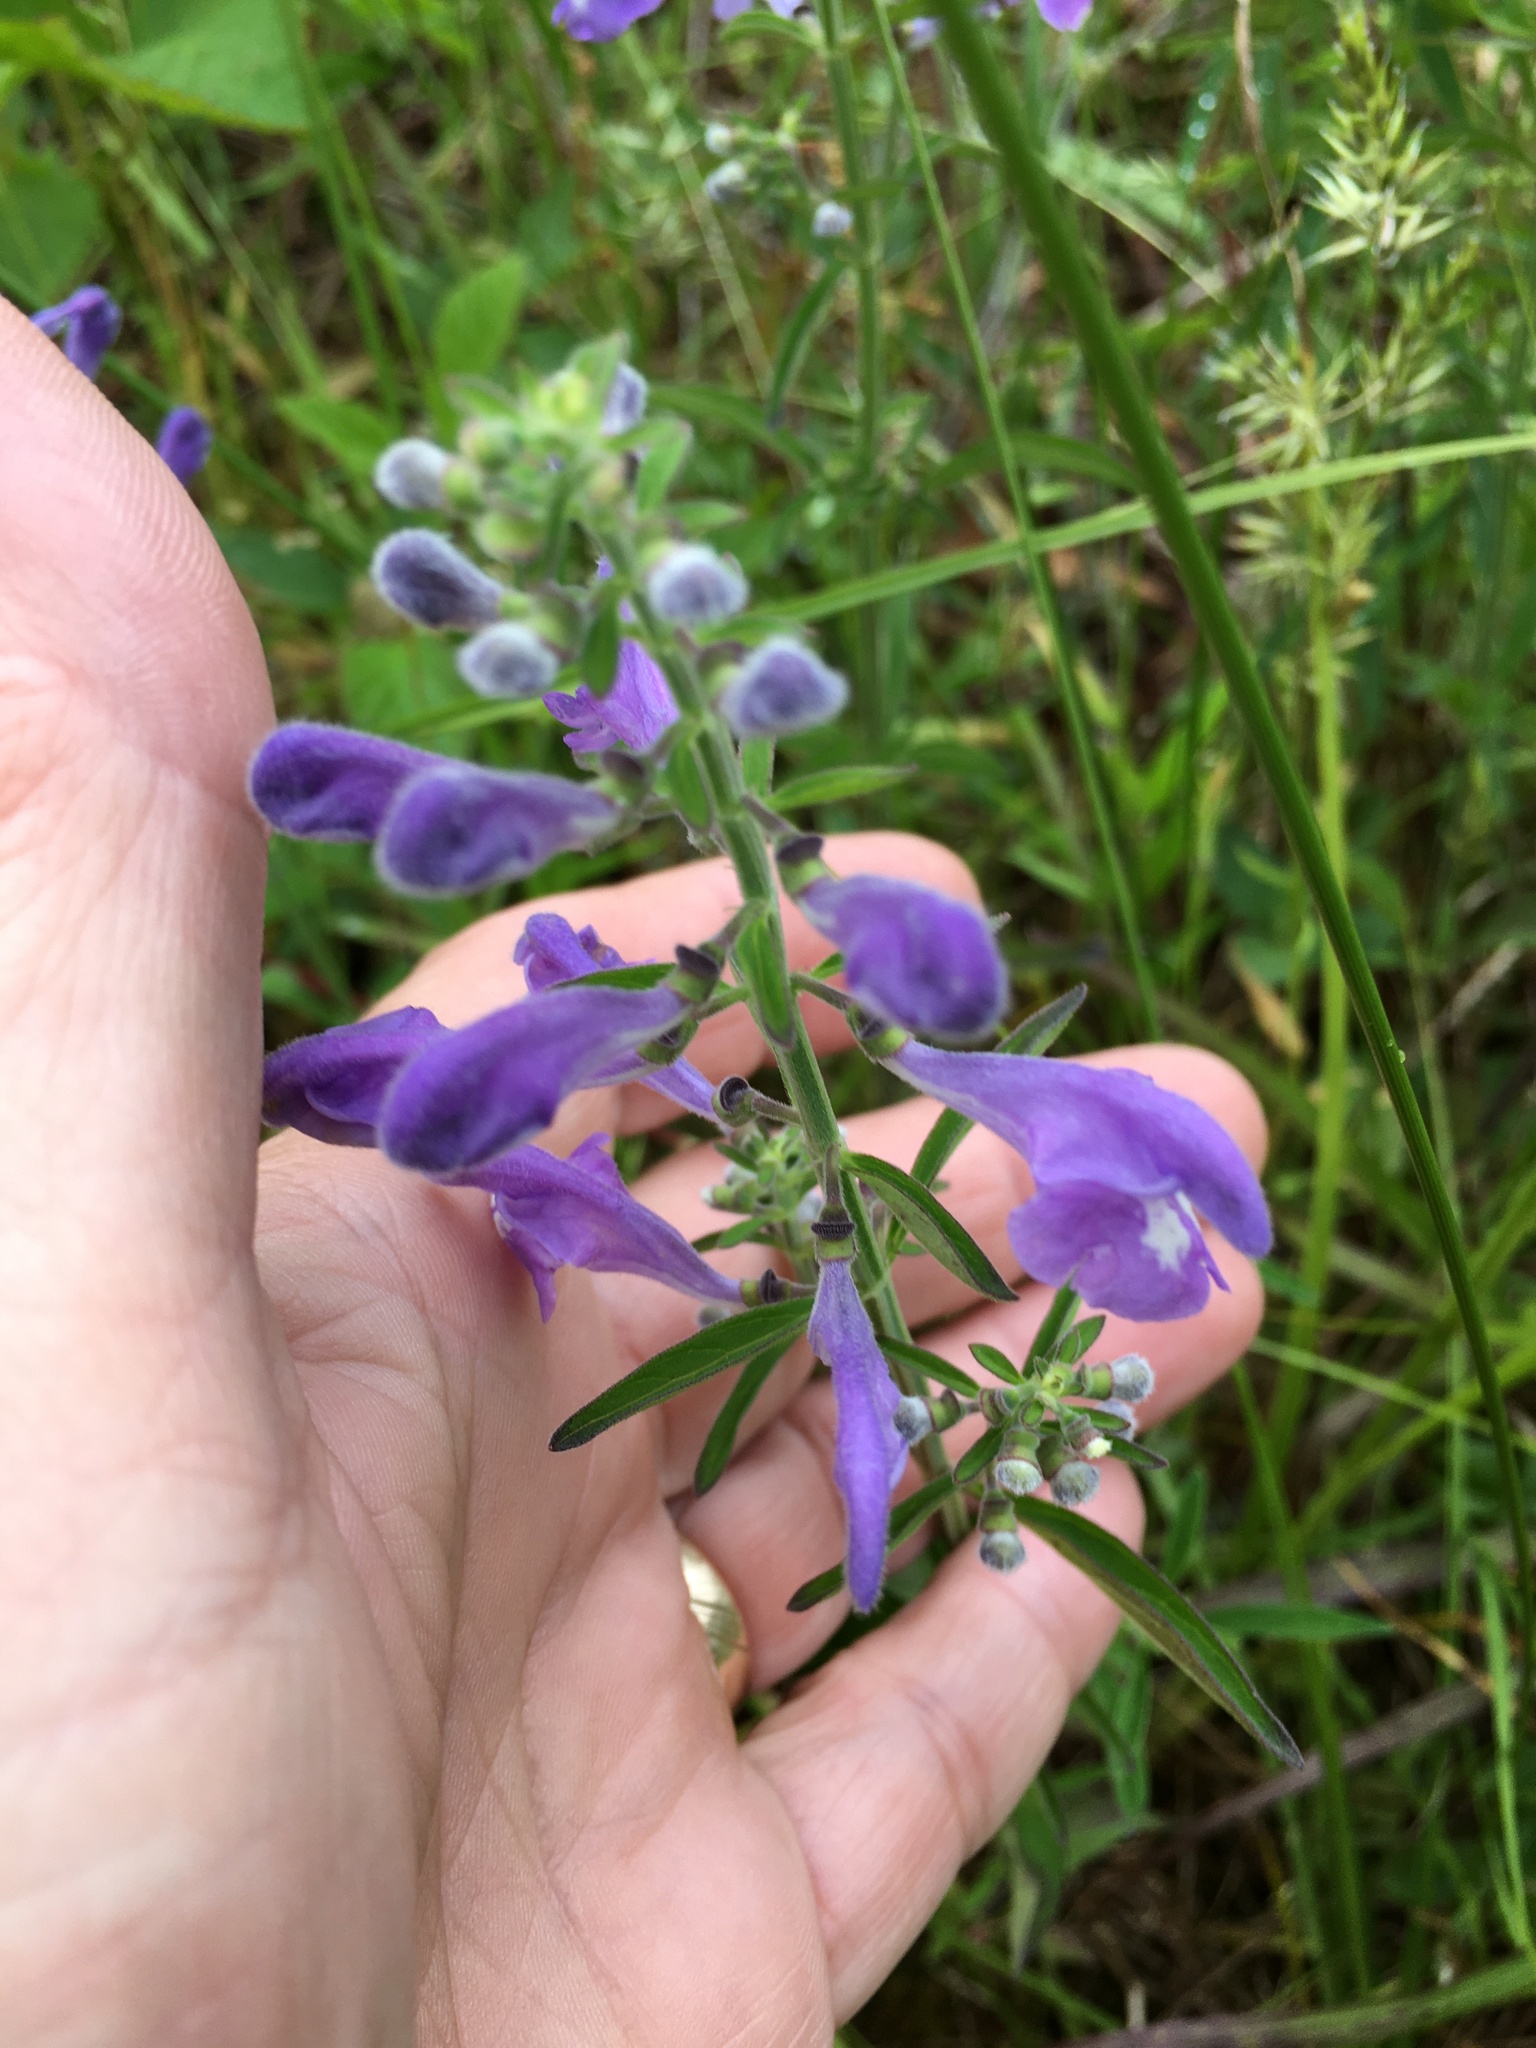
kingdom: Plantae
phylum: Tracheophyta
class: Magnoliopsida
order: Lamiales
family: Lamiaceae
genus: Scutellaria
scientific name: Scutellaria integrifolia
